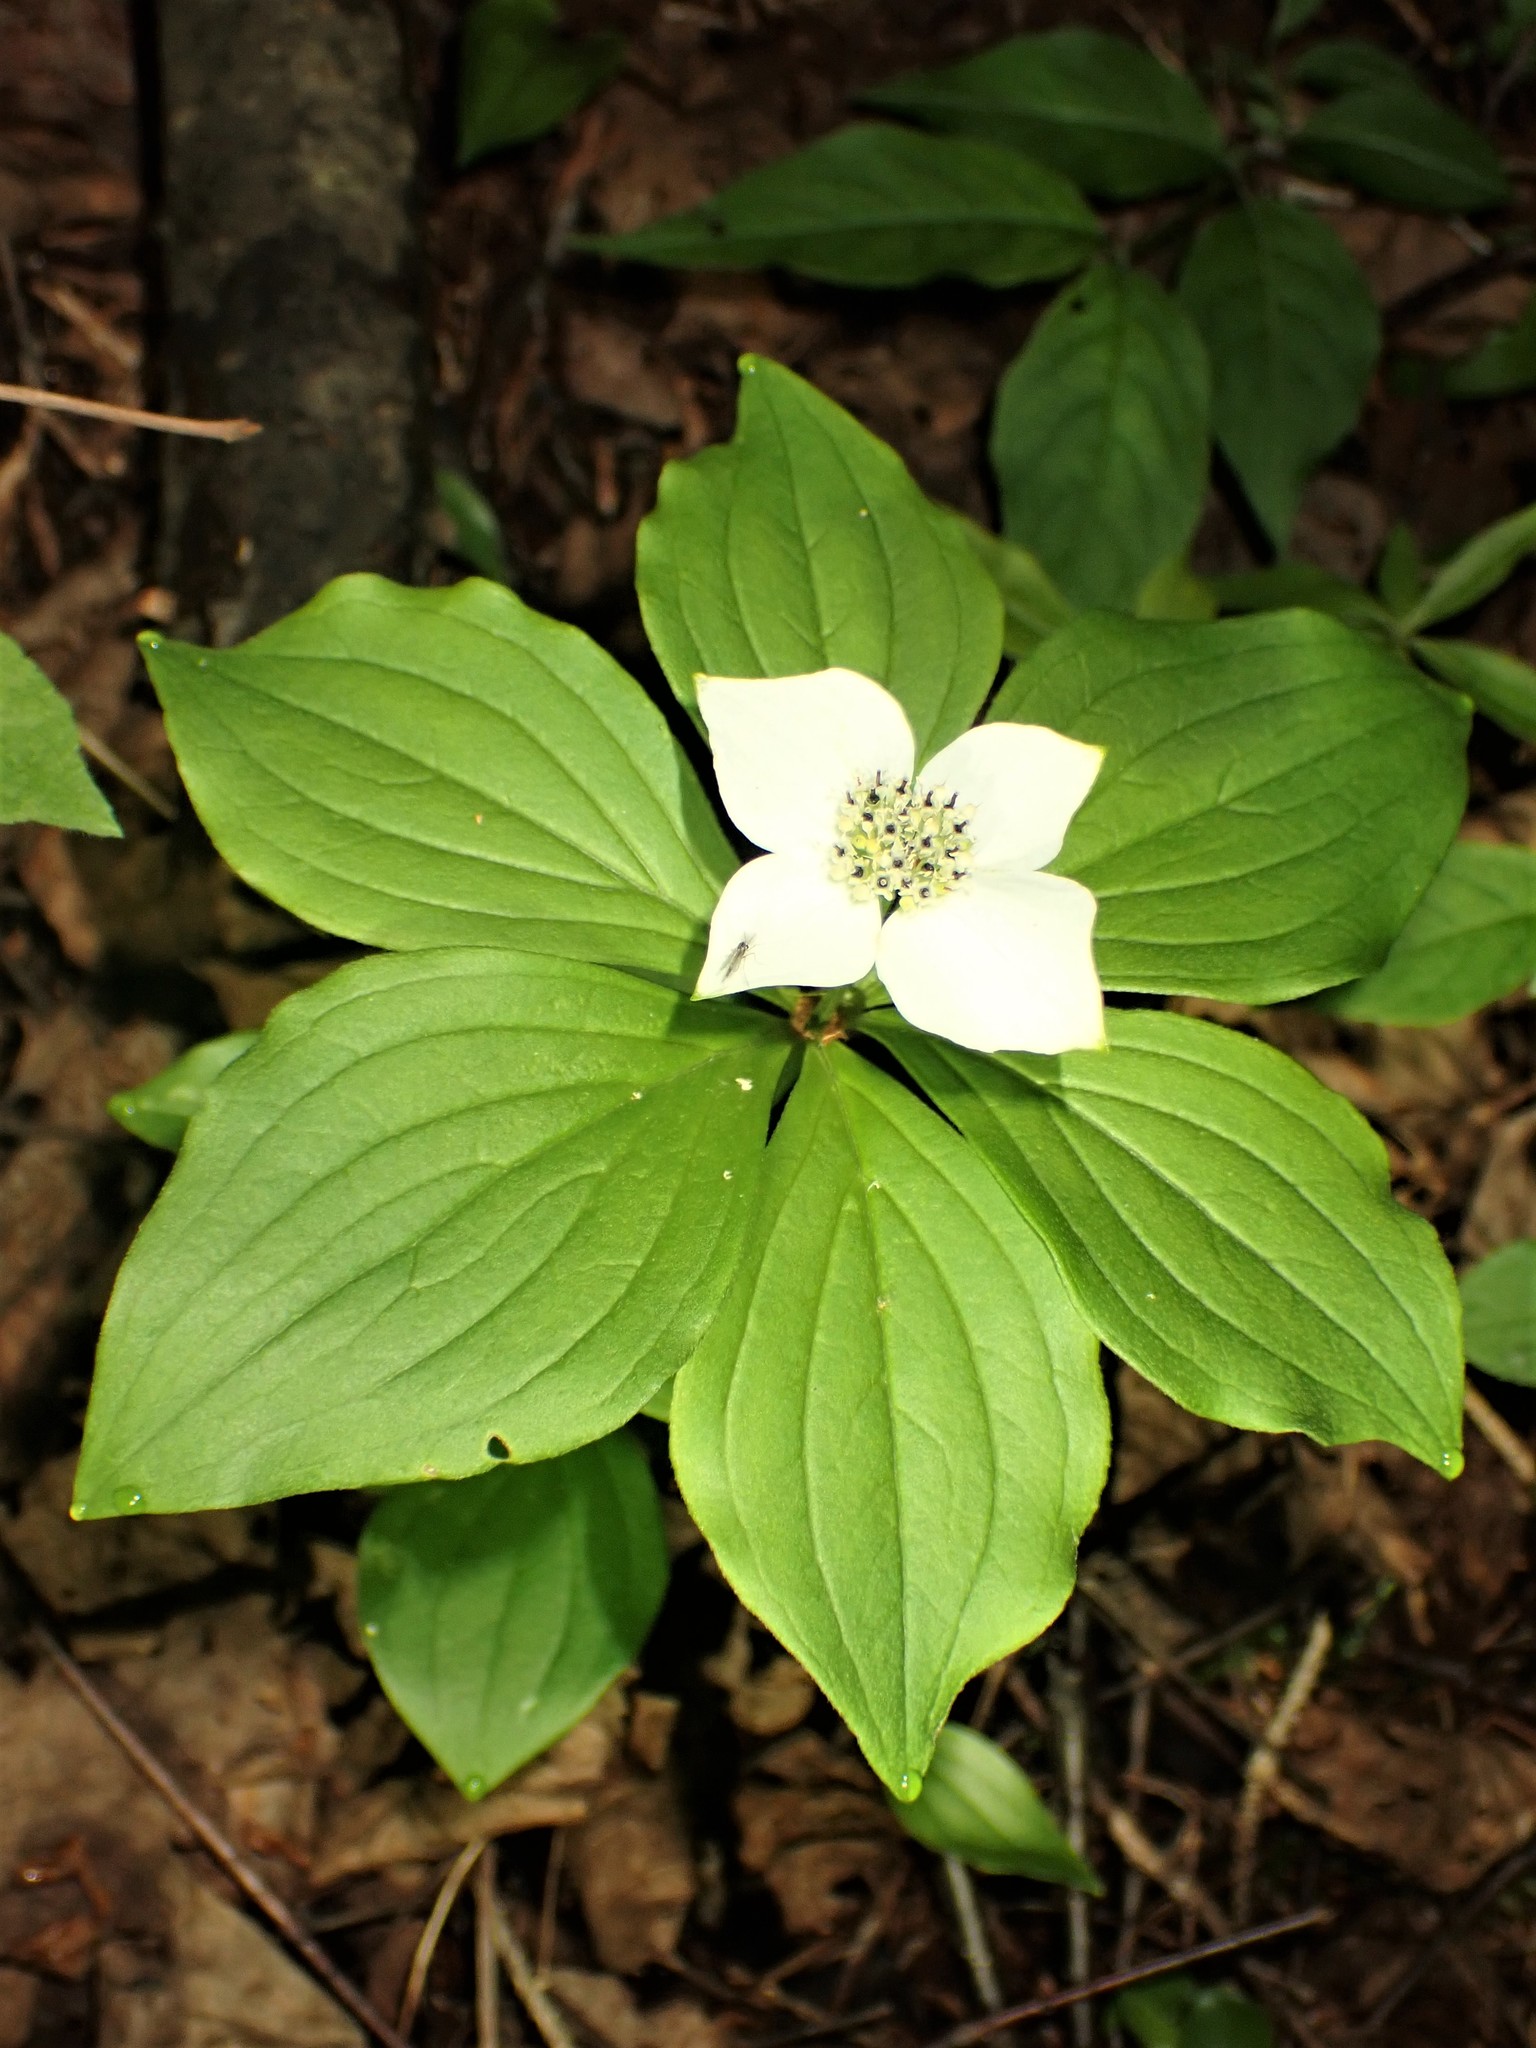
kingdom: Plantae
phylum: Tracheophyta
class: Magnoliopsida
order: Cornales
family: Cornaceae
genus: Cornus
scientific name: Cornus canadensis
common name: Creeping dogwood
